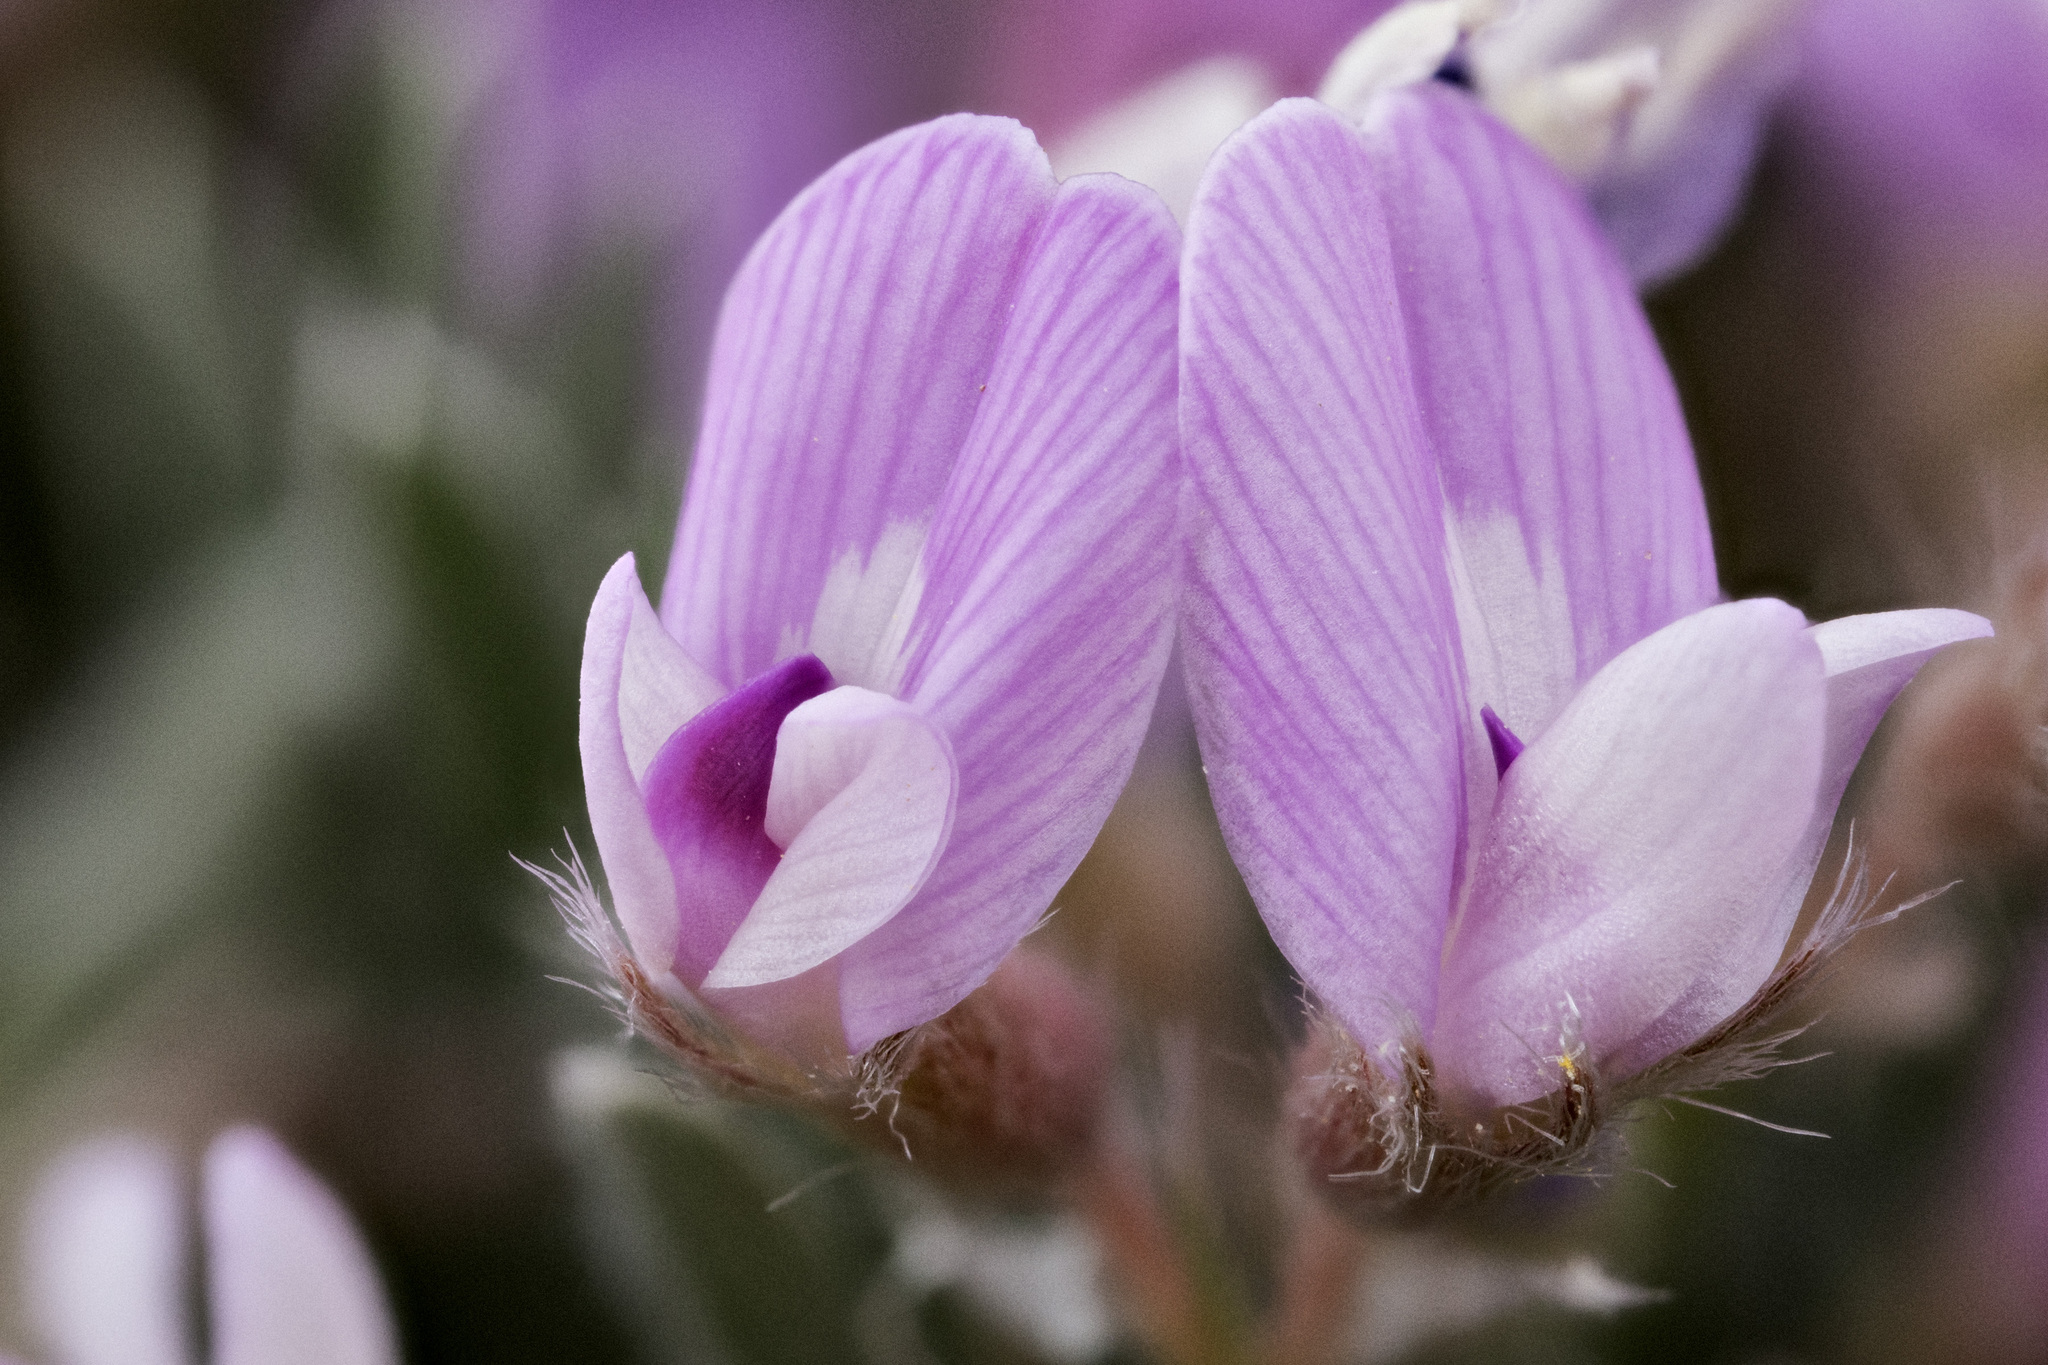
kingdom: Plantae
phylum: Tracheophyta
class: Magnoliopsida
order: Fabales
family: Fabaceae
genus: Astragalus
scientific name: Astragalus sericoleucus
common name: Silky orophaca
